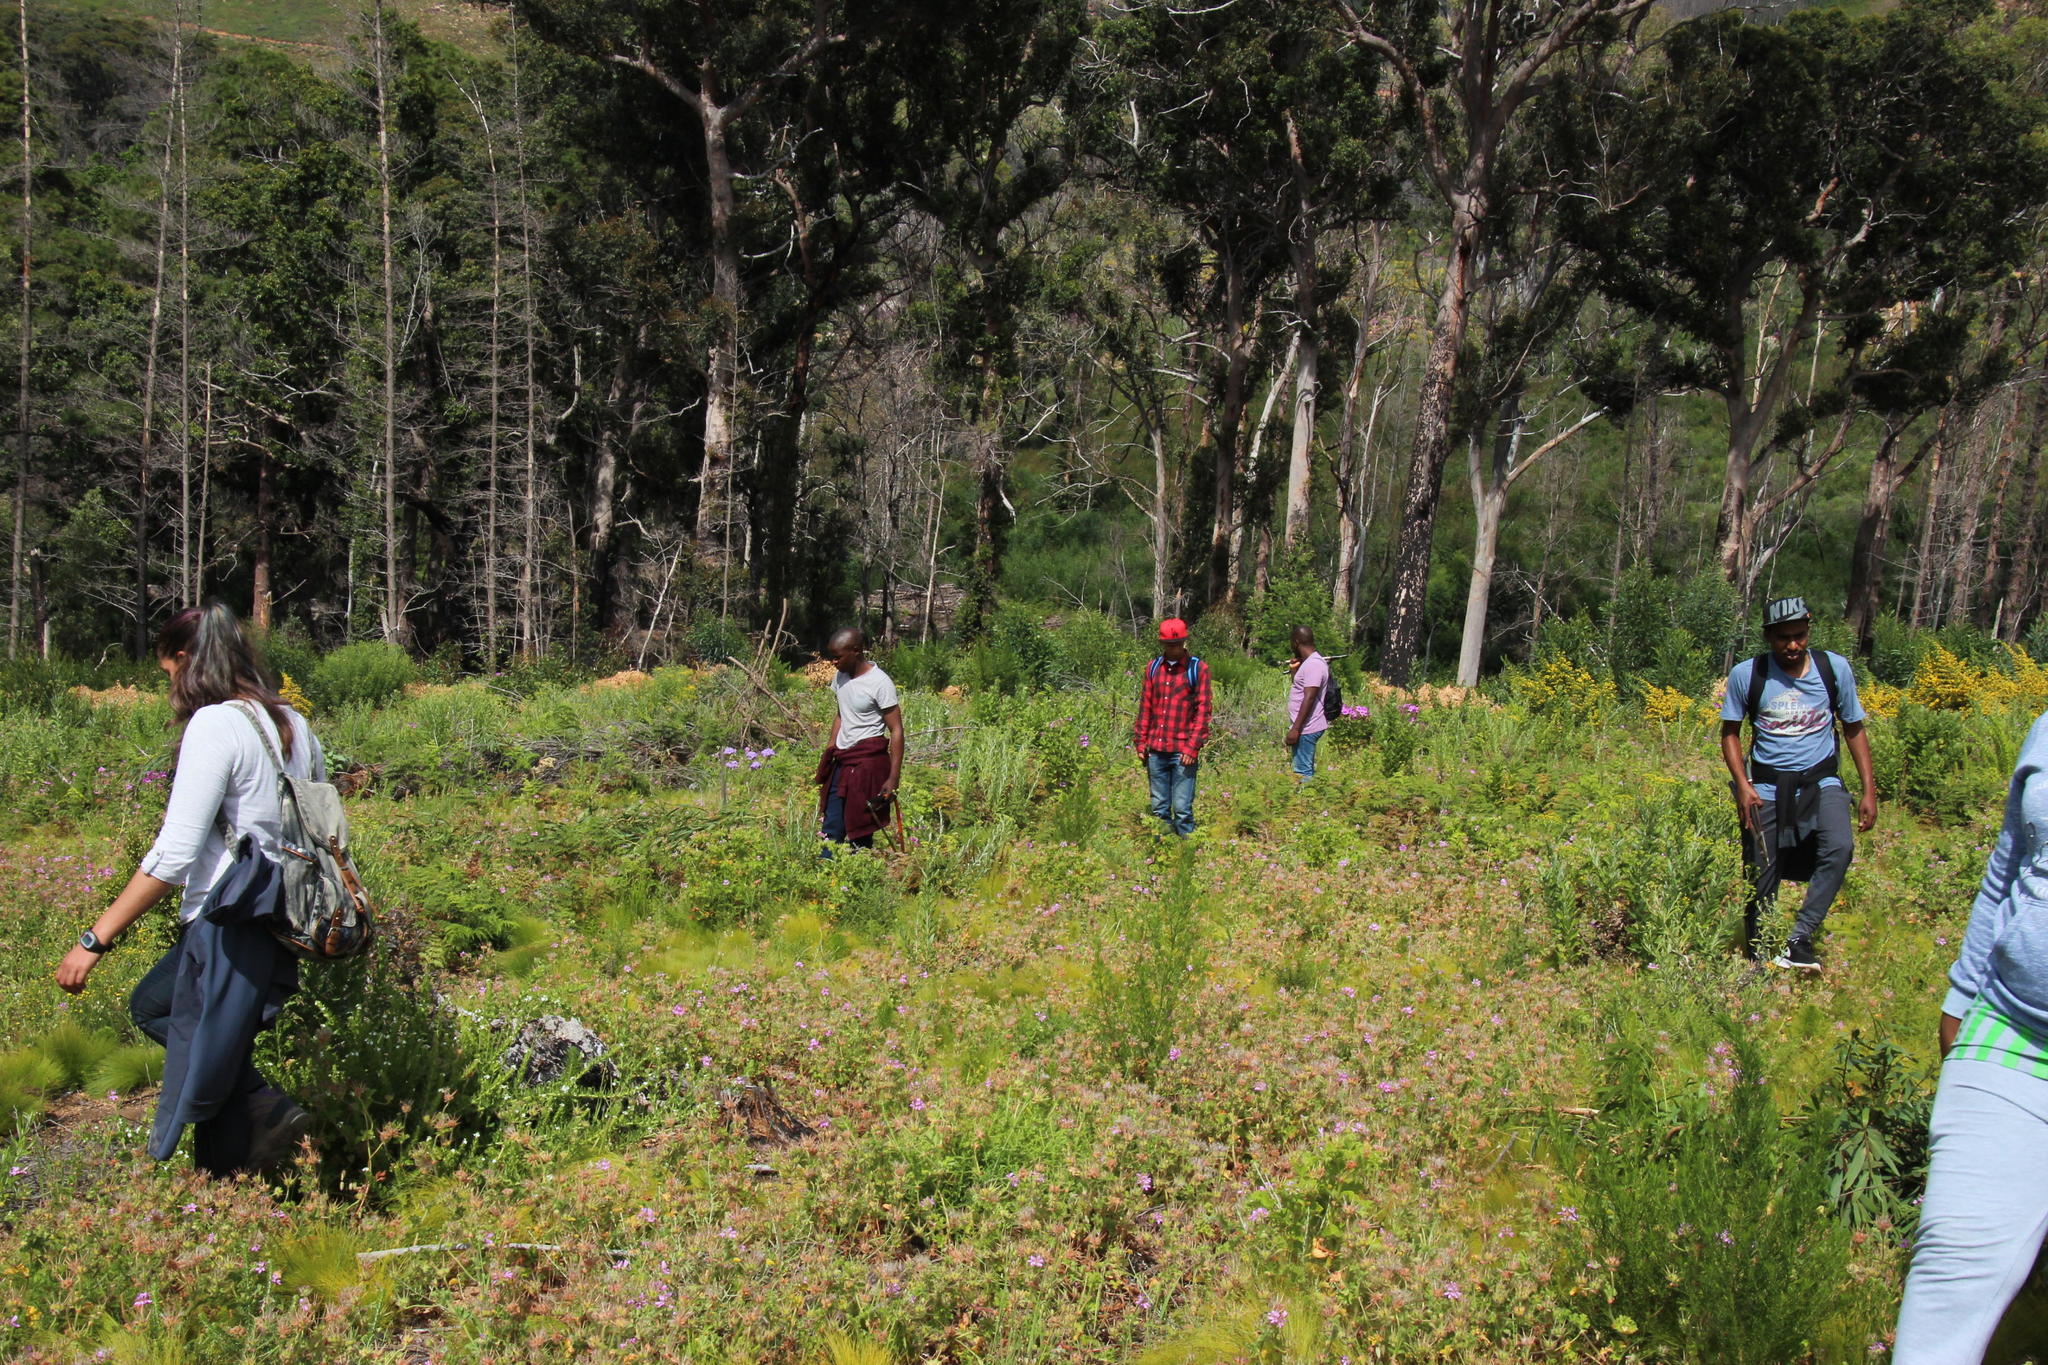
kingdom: Plantae
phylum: Tracheophyta
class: Magnoliopsida
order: Geraniales
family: Geraniaceae
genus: Pelargonium
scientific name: Pelargonium capitatum
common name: Rose scented geranium
